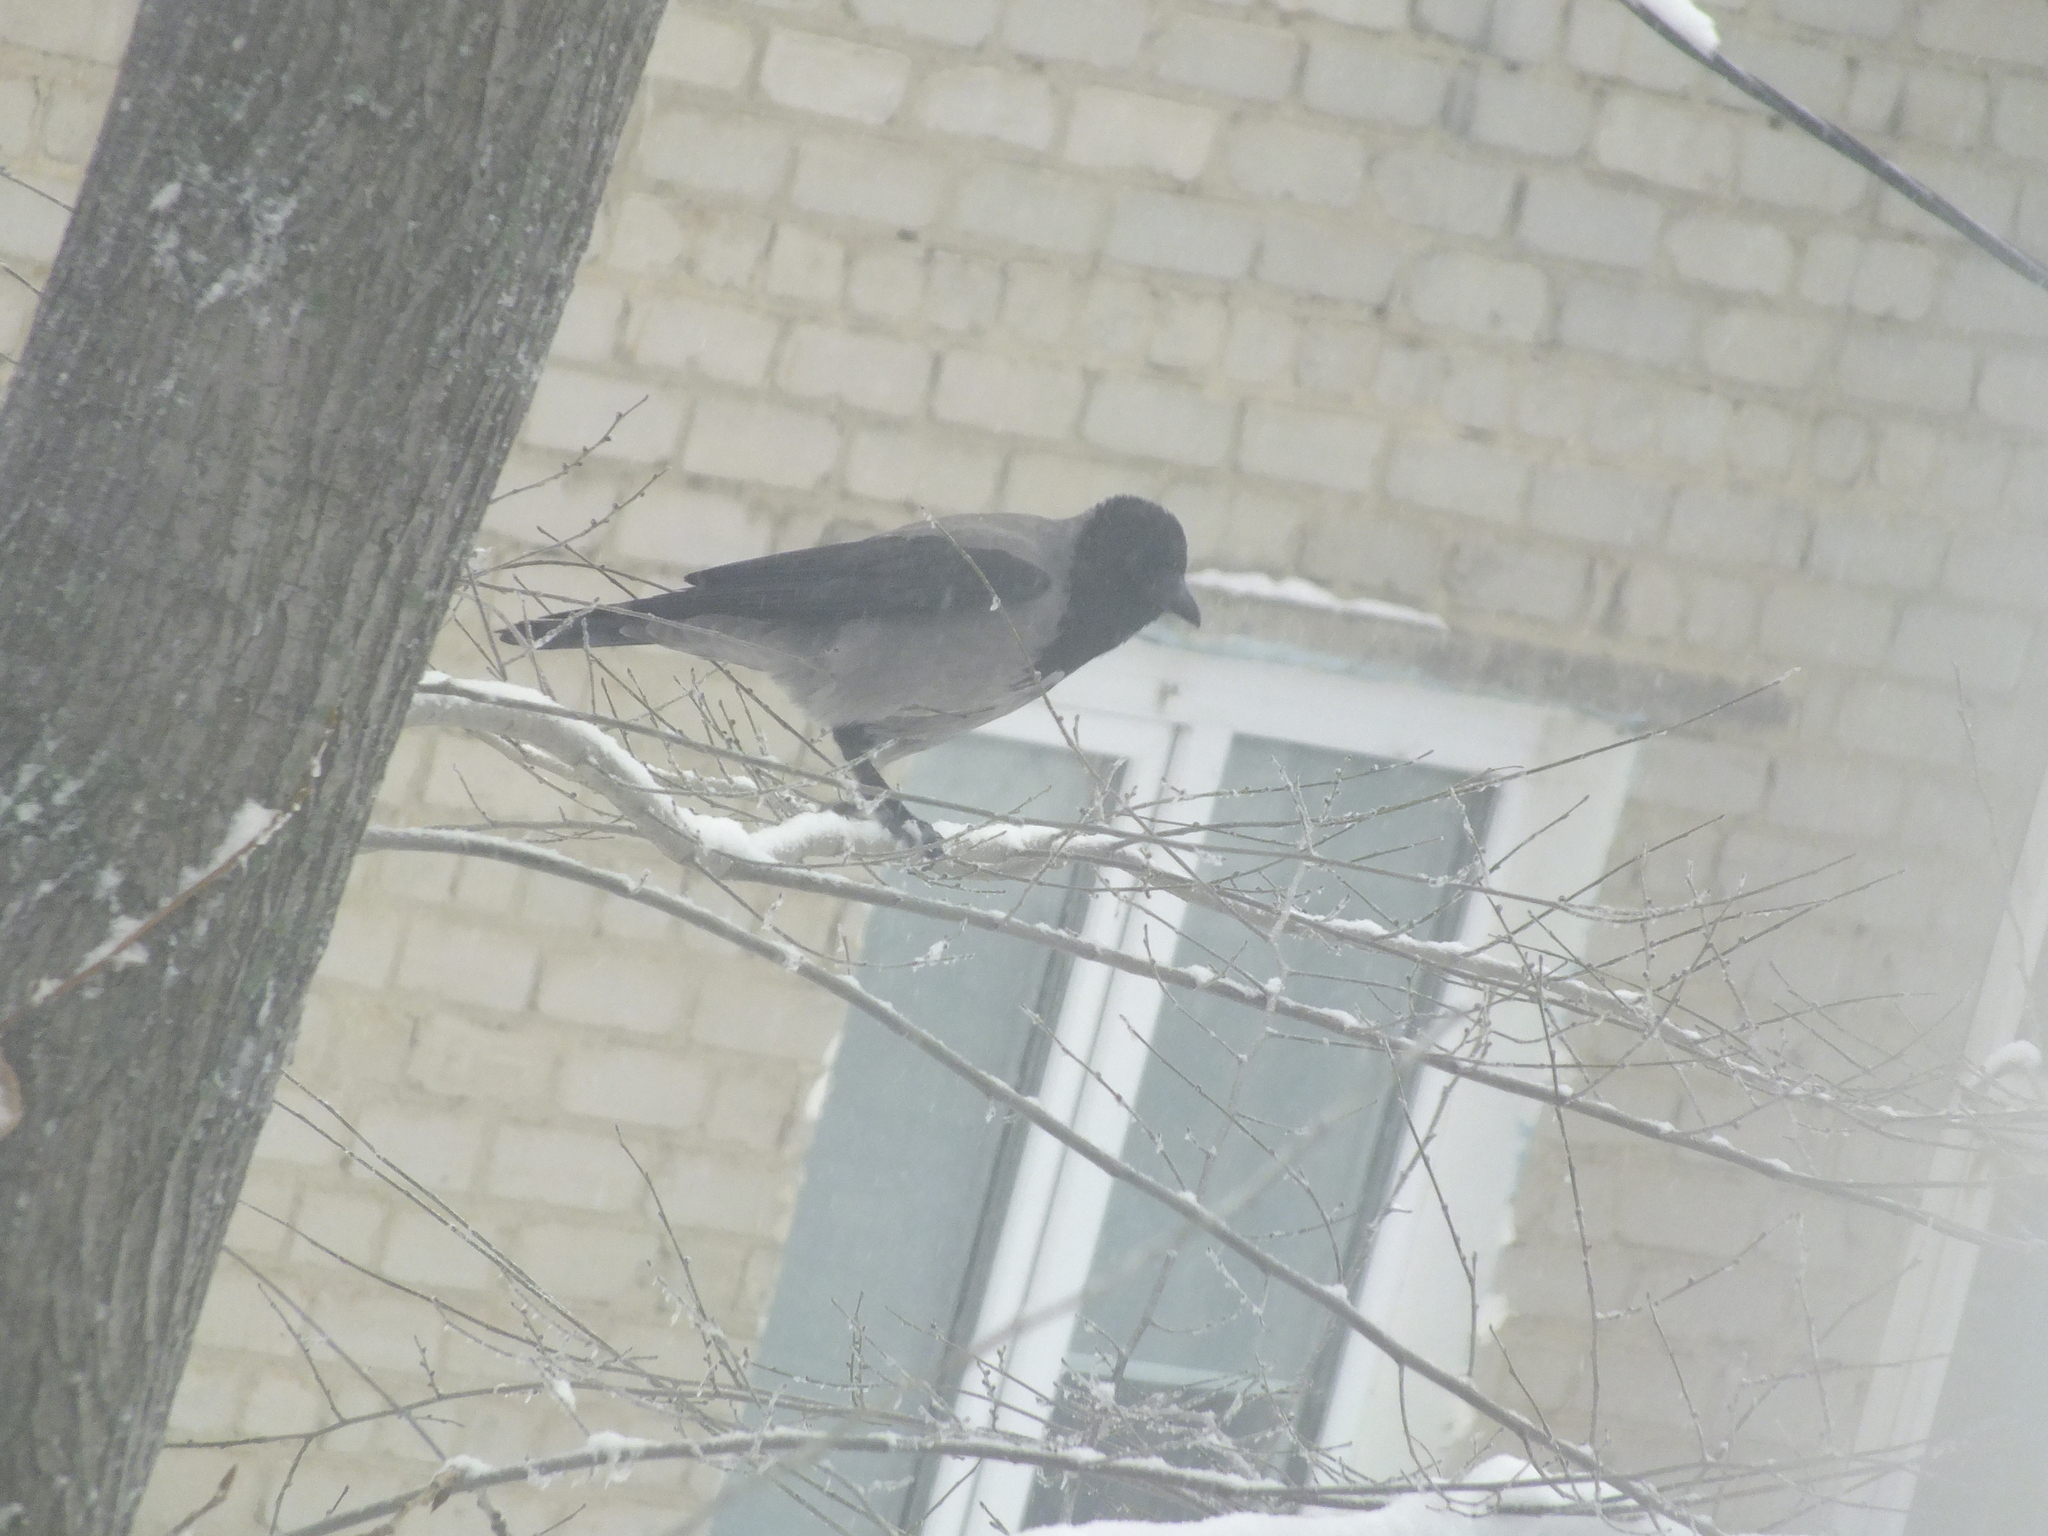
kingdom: Animalia
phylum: Chordata
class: Aves
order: Passeriformes
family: Corvidae
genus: Corvus
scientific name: Corvus cornix
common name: Hooded crow
